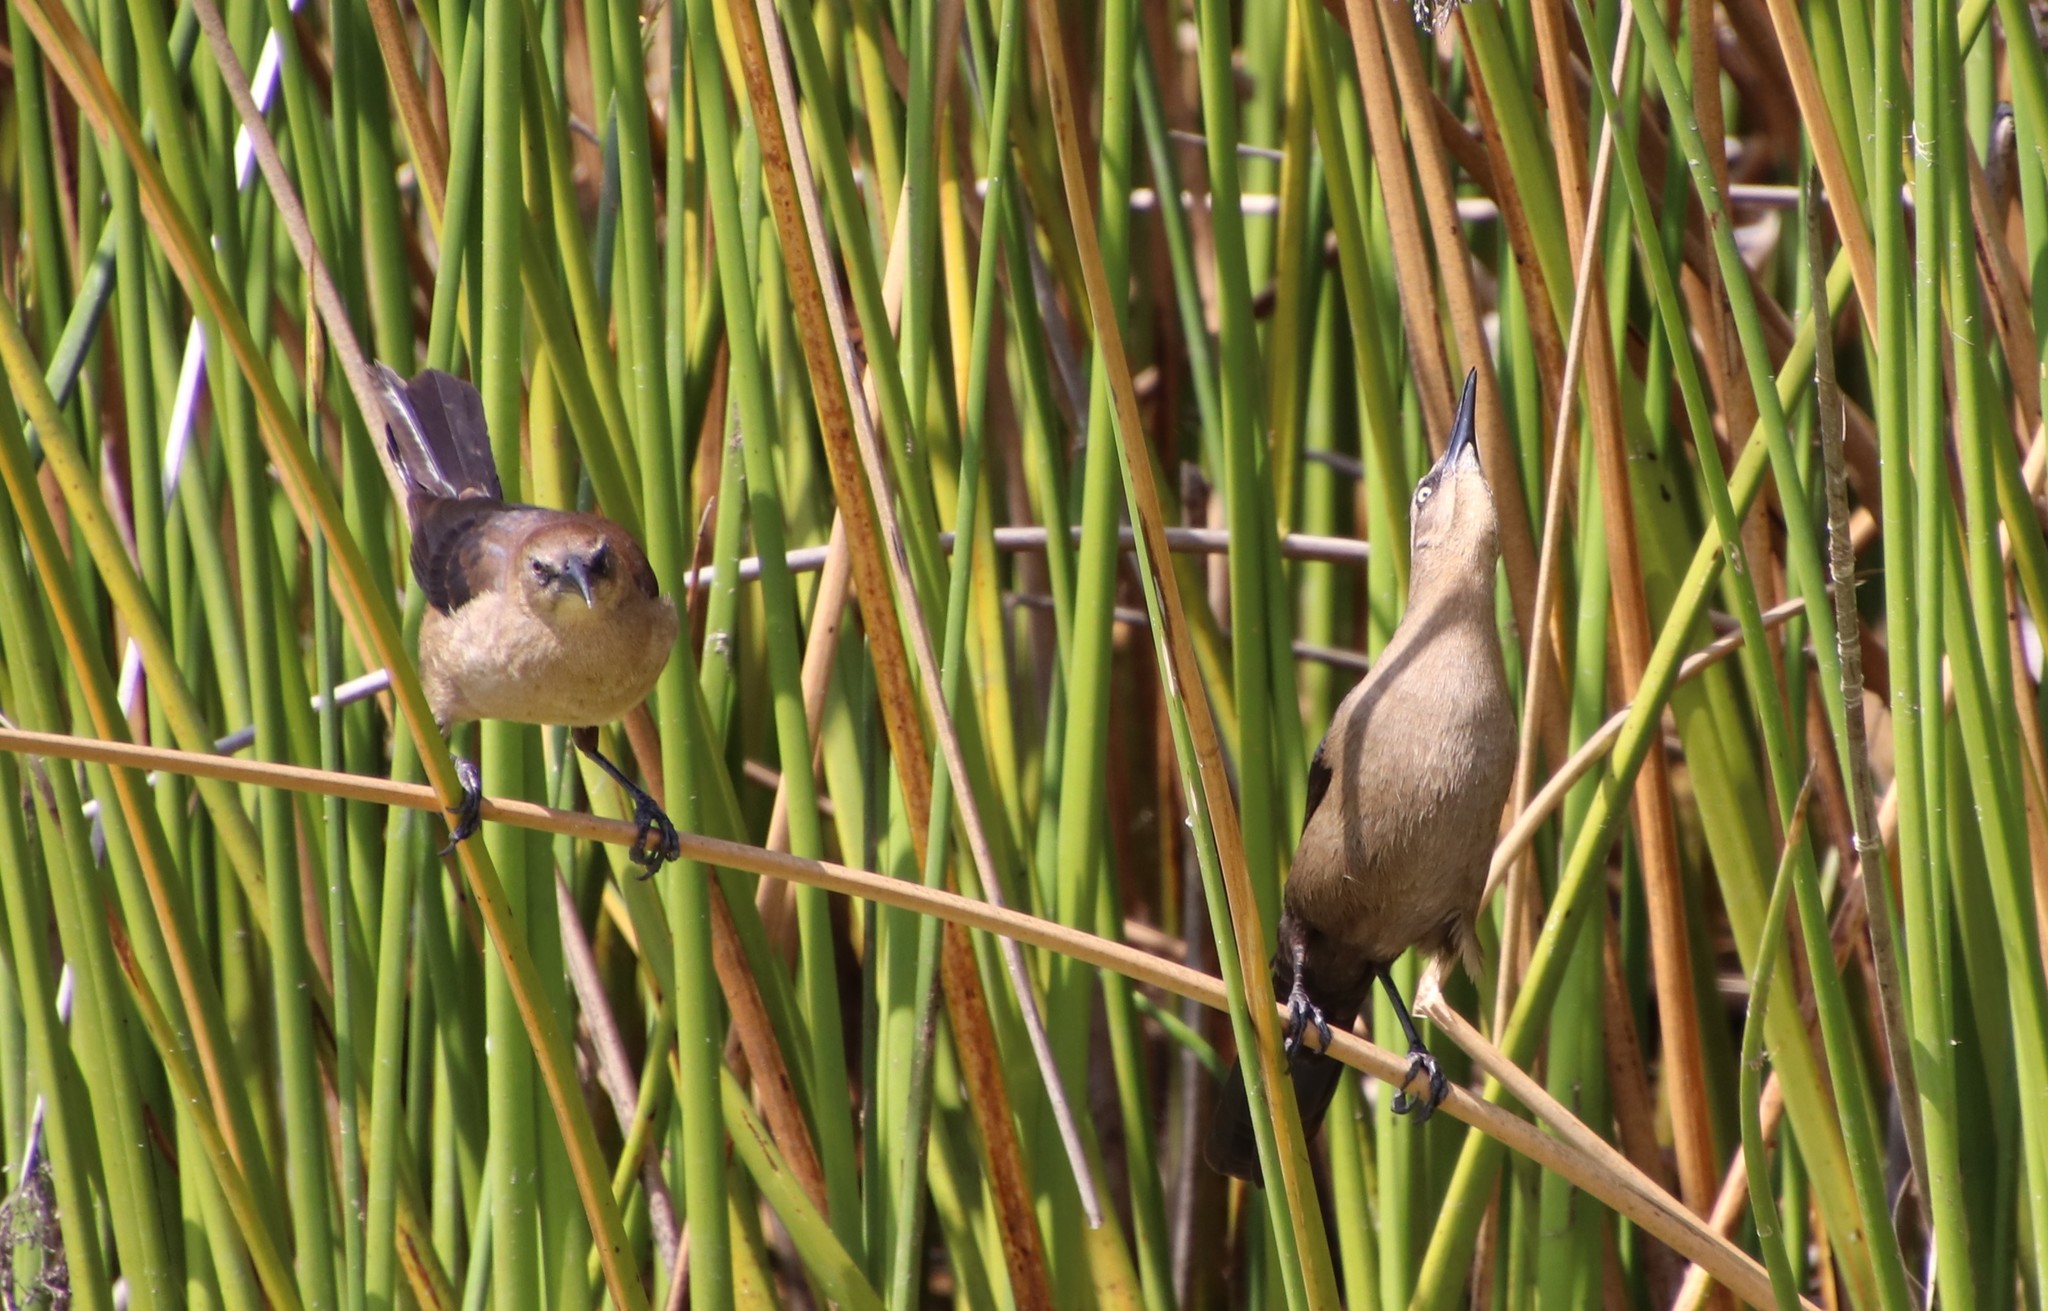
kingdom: Animalia
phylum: Chordata
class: Aves
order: Passeriformes
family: Icteridae
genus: Quiscalus
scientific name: Quiscalus mexicanus
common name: Great-tailed grackle
